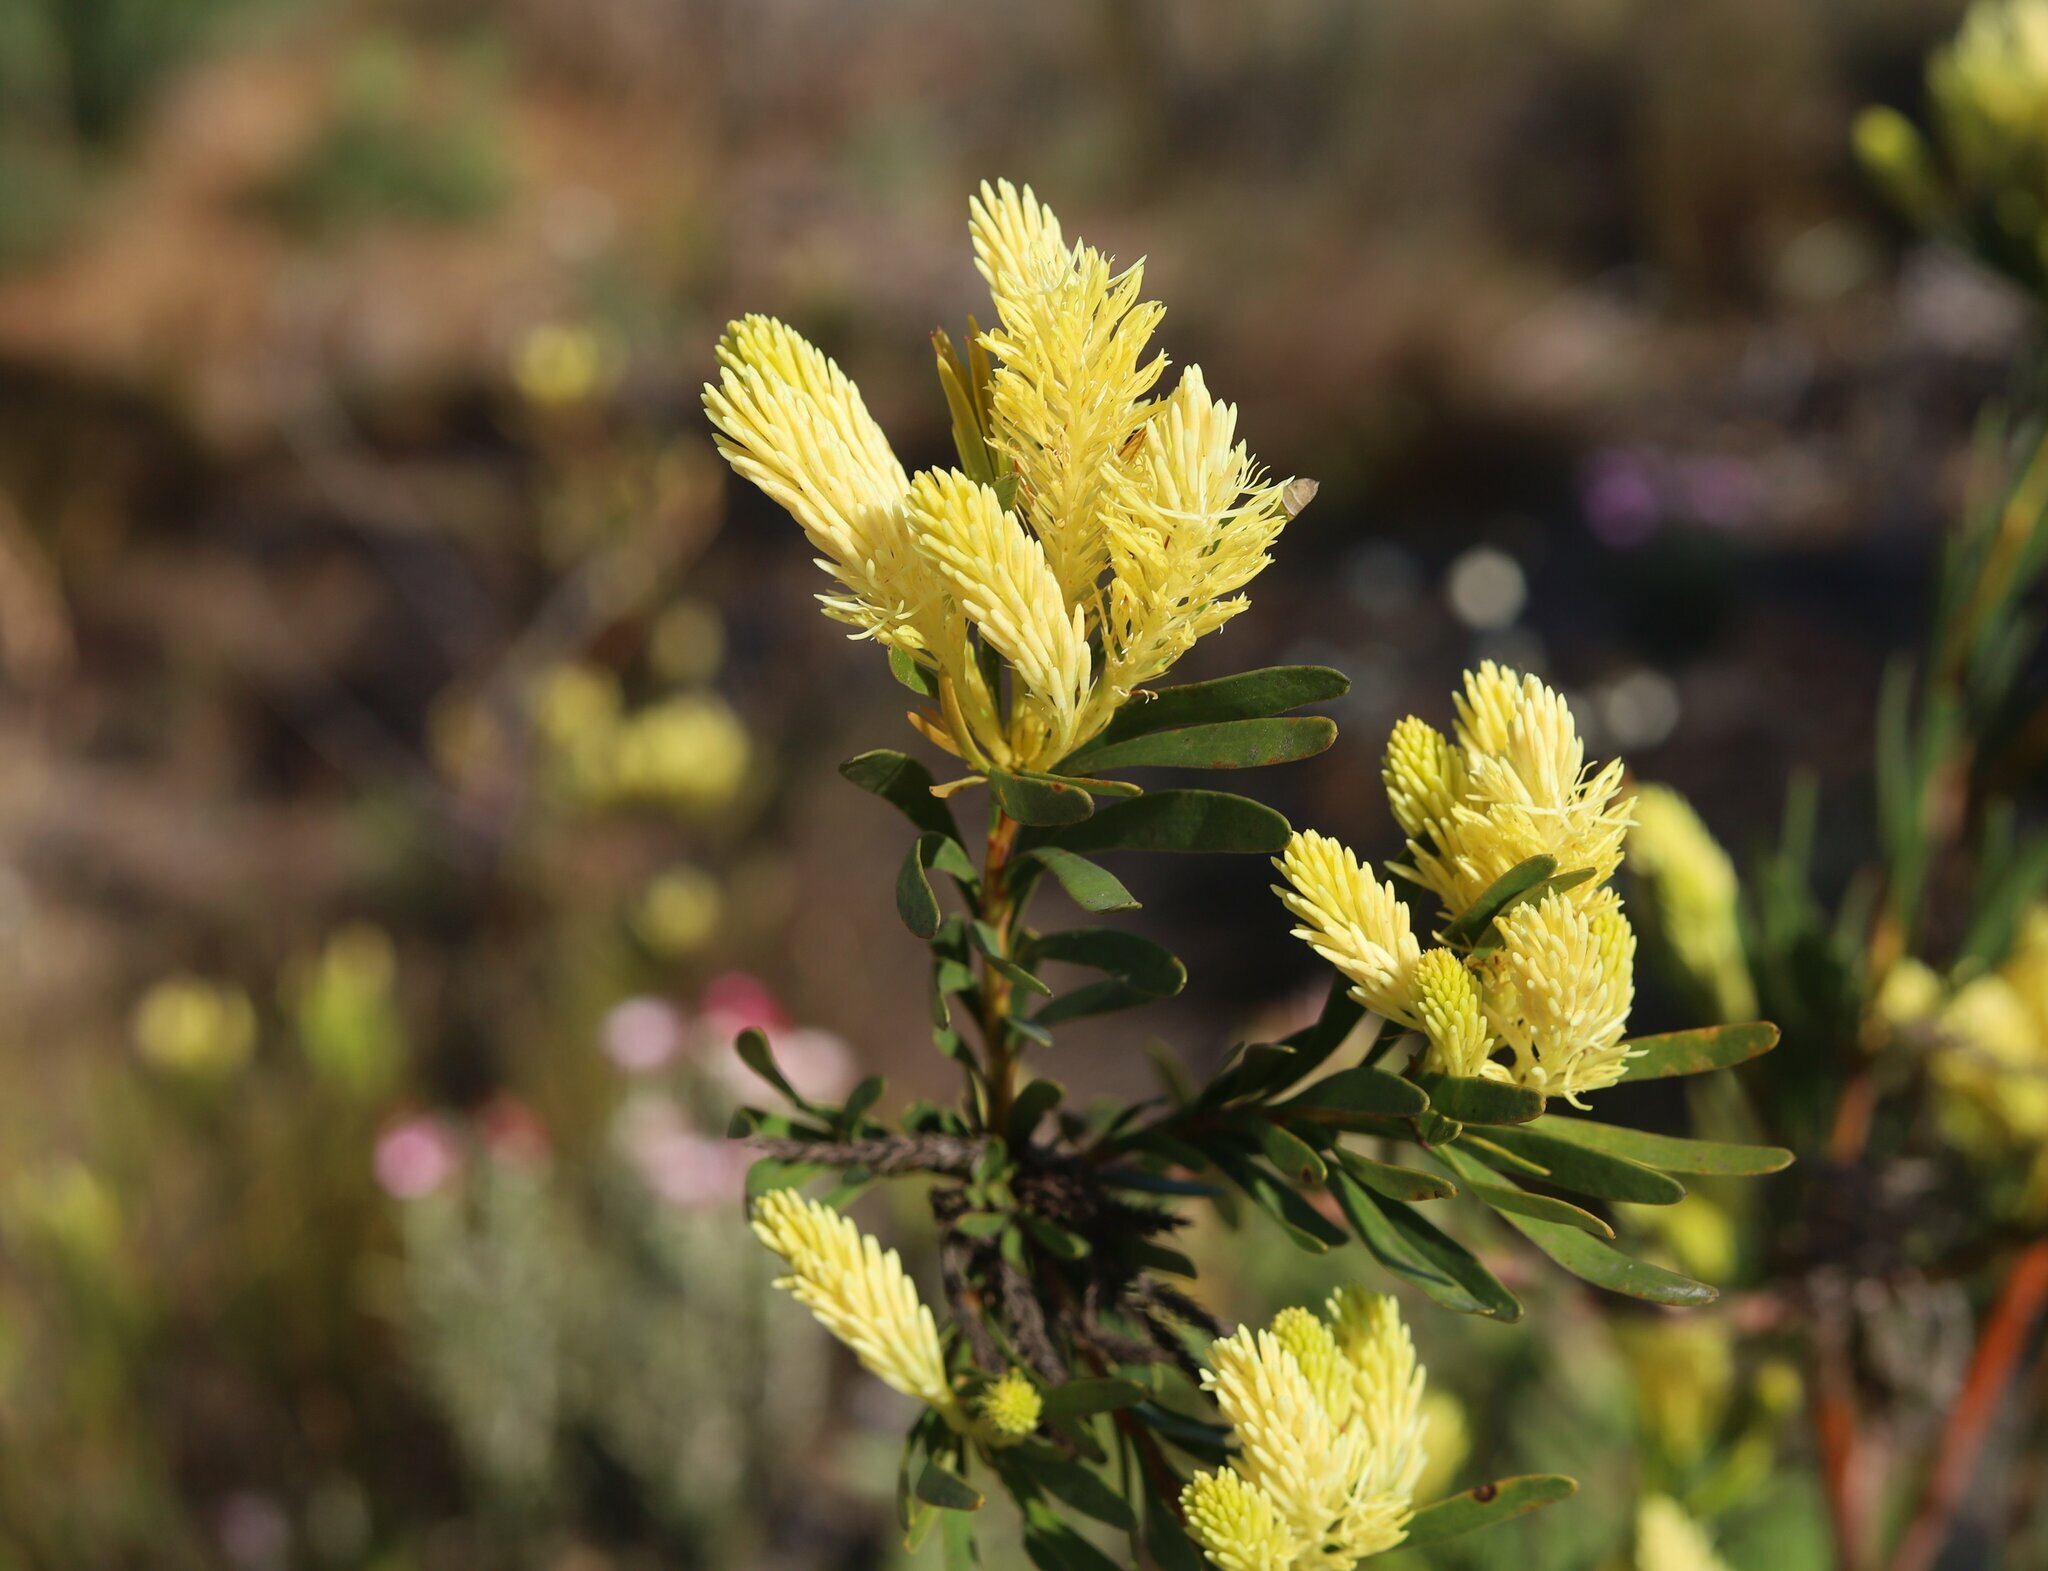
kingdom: Plantae
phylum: Tracheophyta
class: Magnoliopsida
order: Proteales
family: Proteaceae
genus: Aulax
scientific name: Aulax umbellata
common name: Broad-leaf featherbush
